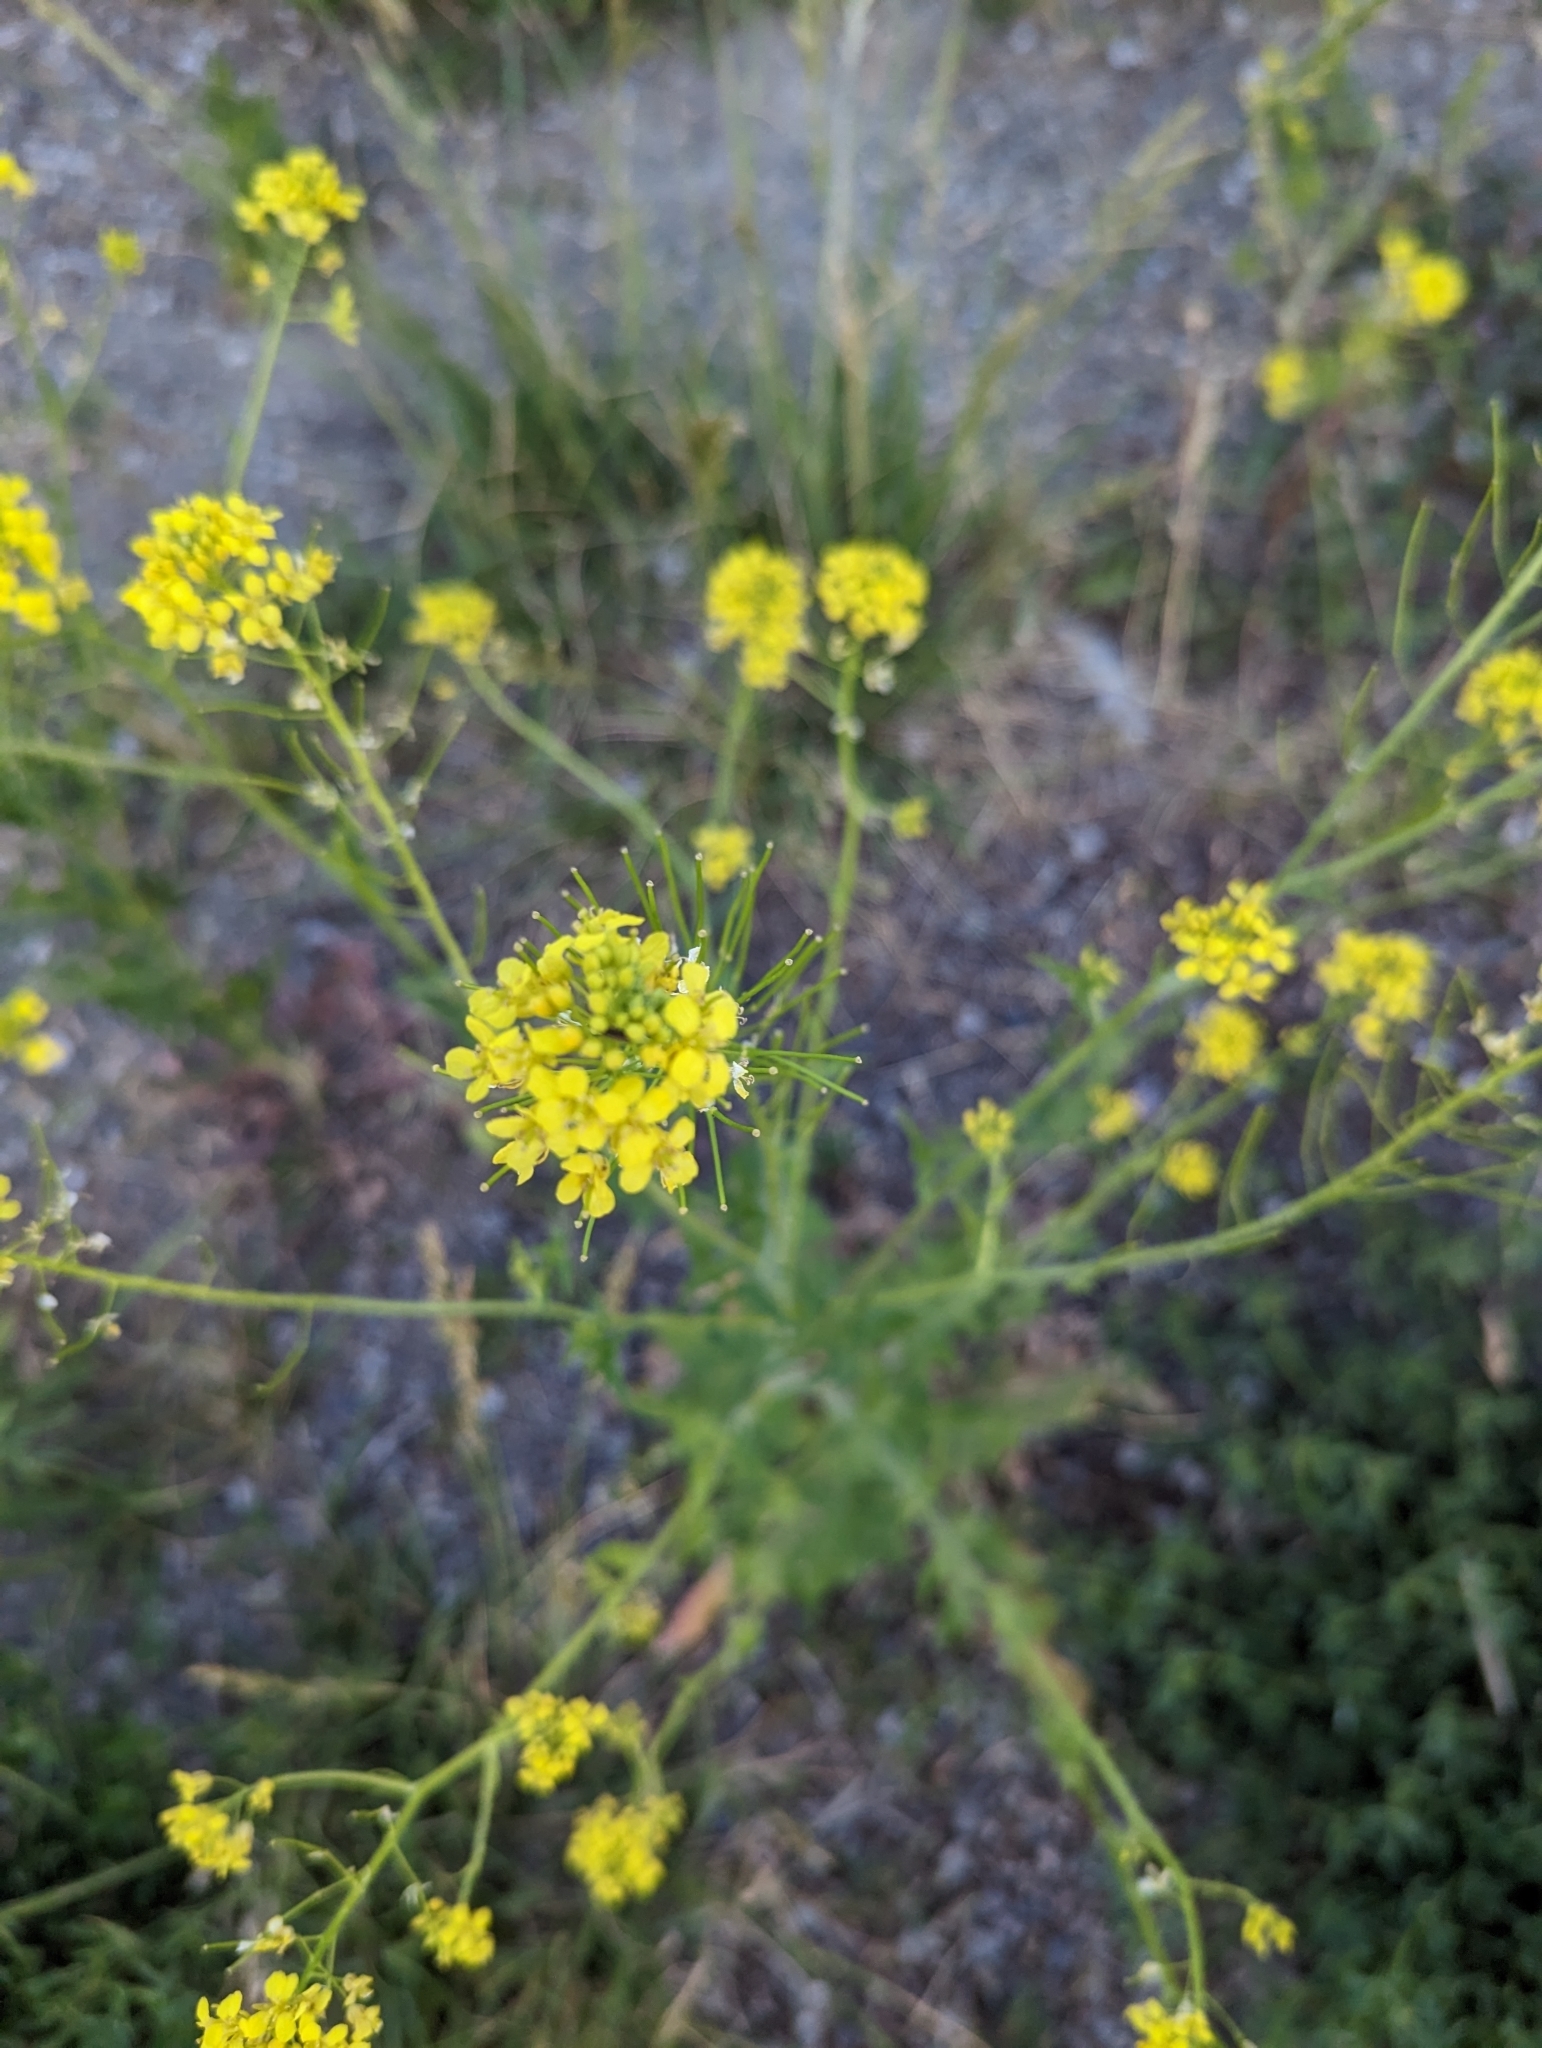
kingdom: Plantae
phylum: Tracheophyta
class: Magnoliopsida
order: Brassicales
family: Brassicaceae
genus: Sisymbrium
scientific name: Sisymbrium loeselii
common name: False london-rocket
